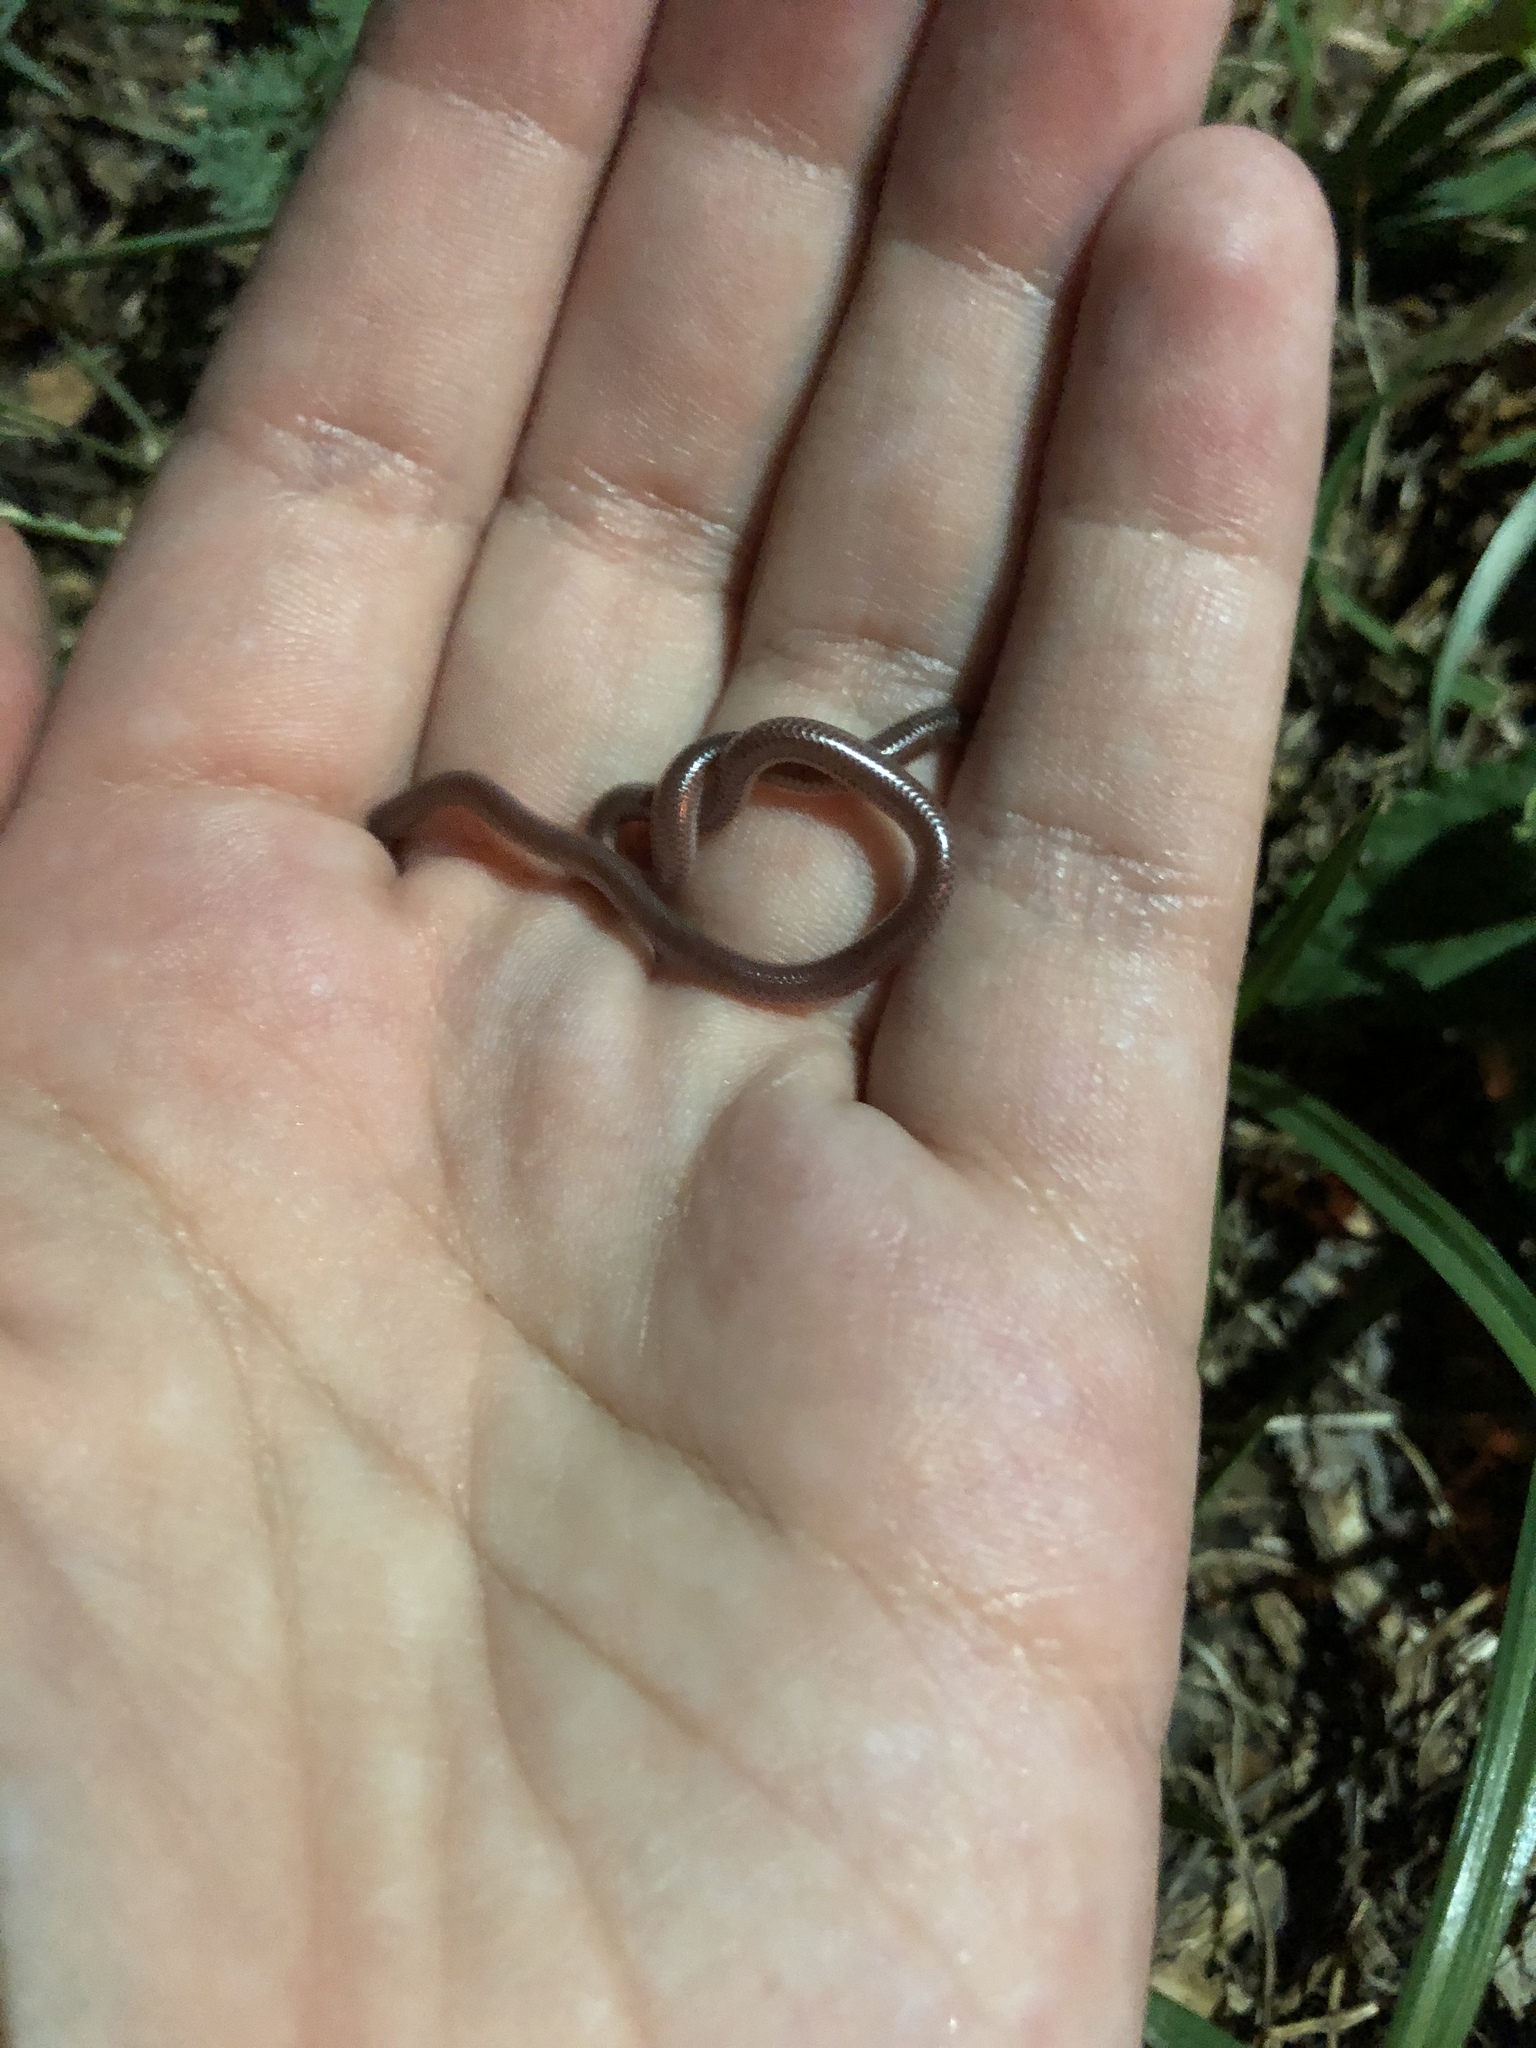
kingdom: Animalia
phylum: Chordata
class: Squamata
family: Leptotyphlopidae
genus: Rena
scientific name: Rena dulcis
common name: Texas blind snake
